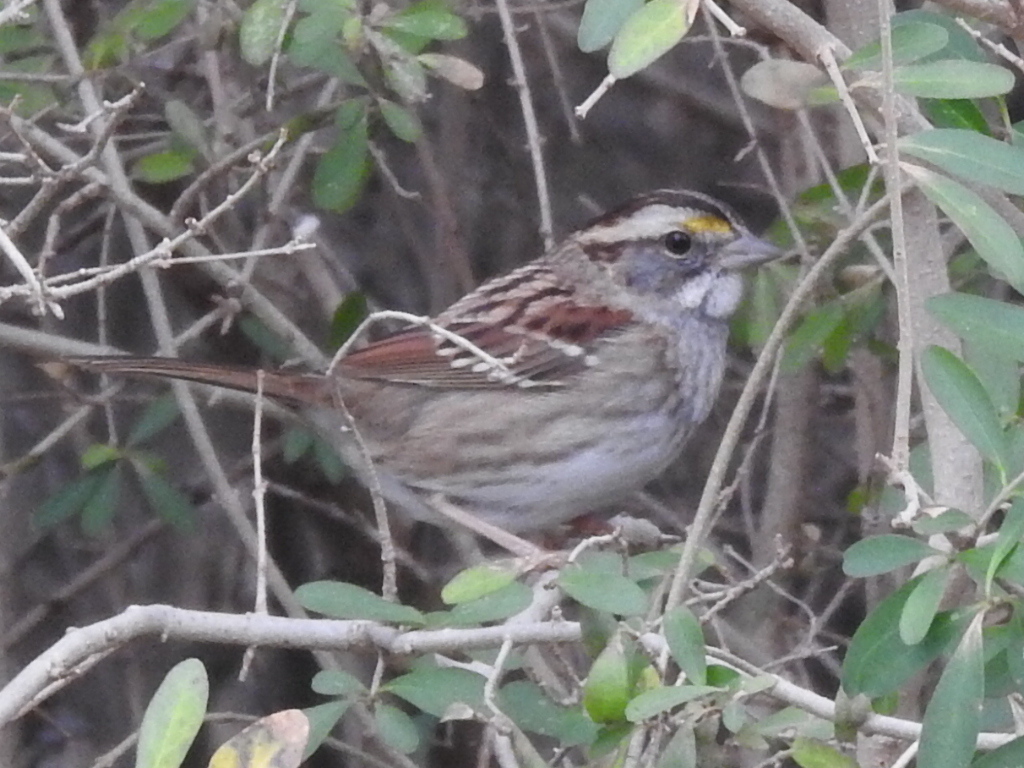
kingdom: Animalia
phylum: Chordata
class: Aves
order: Passeriformes
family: Passerellidae
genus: Zonotrichia
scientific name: Zonotrichia albicollis
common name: White-throated sparrow
